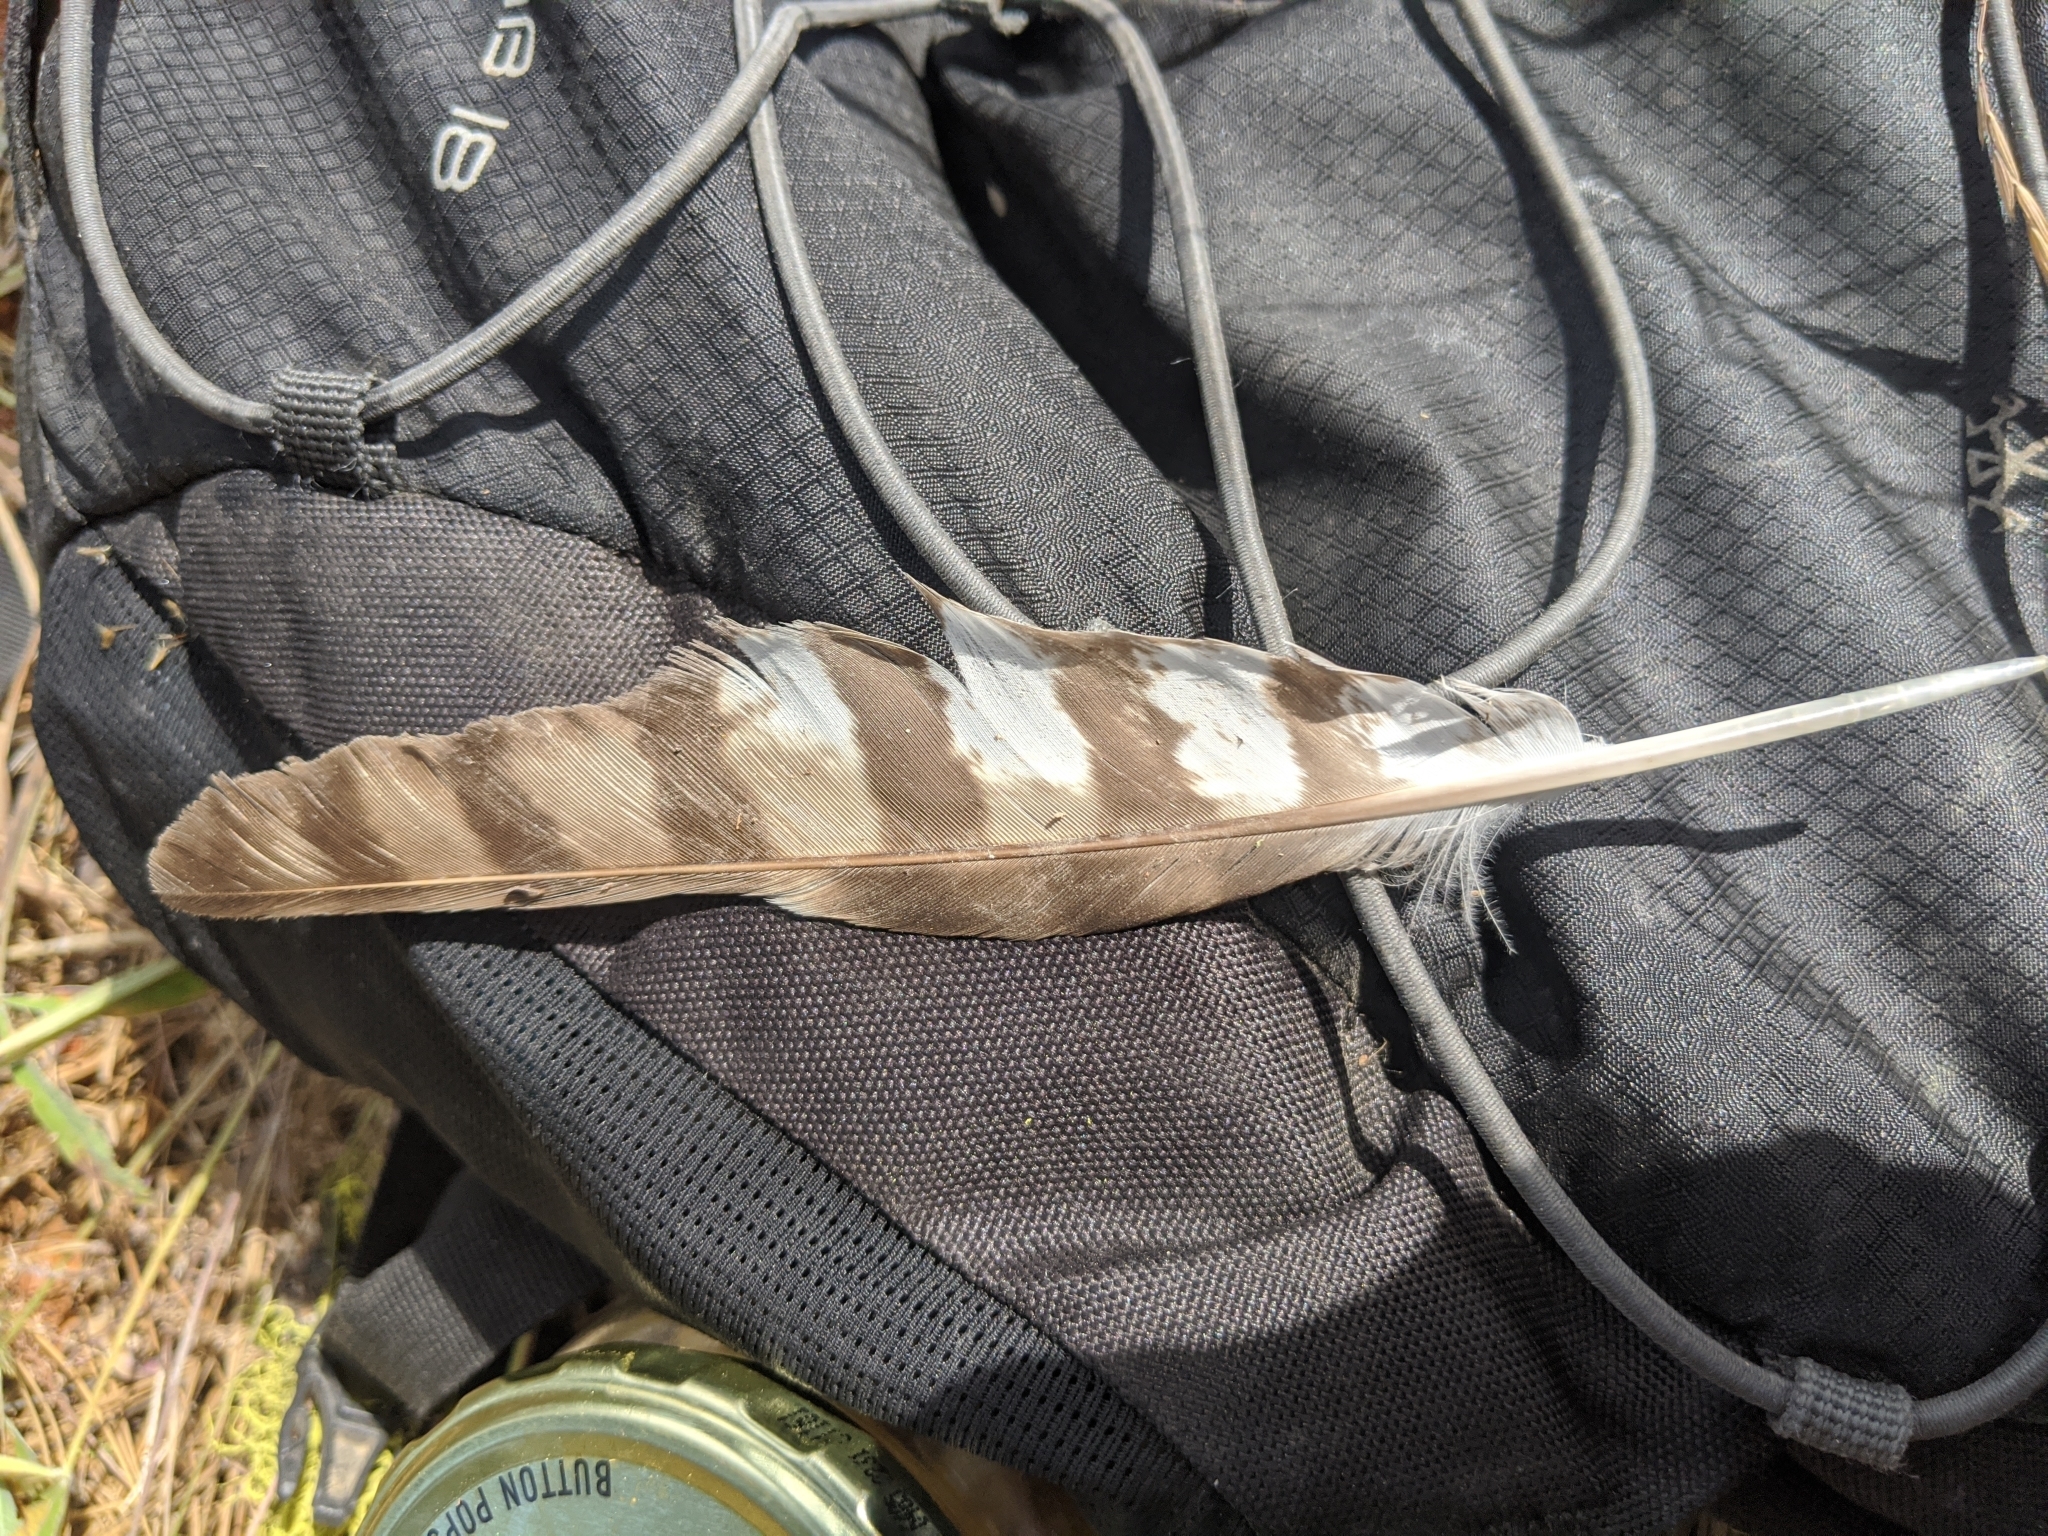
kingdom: Animalia
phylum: Chordata
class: Aves
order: Accipitriformes
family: Accipitridae
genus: Accipiter
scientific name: Accipiter cooperii
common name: Cooper's hawk
